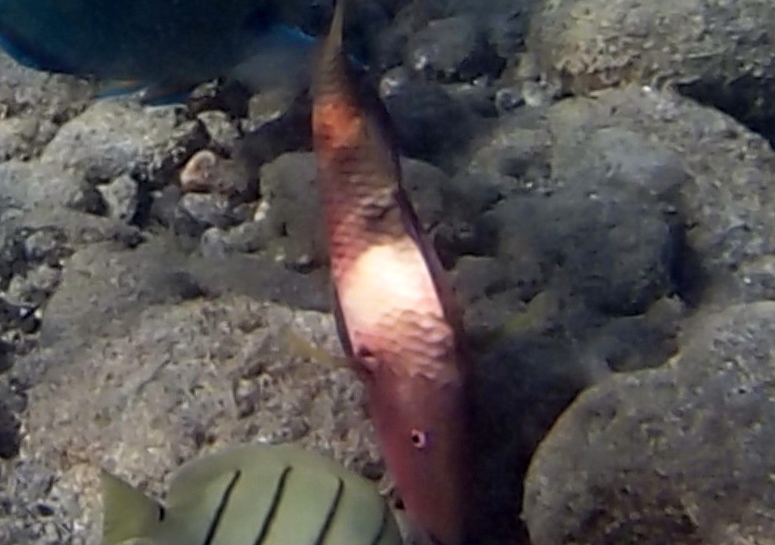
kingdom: Animalia
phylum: Chordata
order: Perciformes
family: Mullidae
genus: Parupeneus
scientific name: Parupeneus multifasciatus
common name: Manybar goatfish
